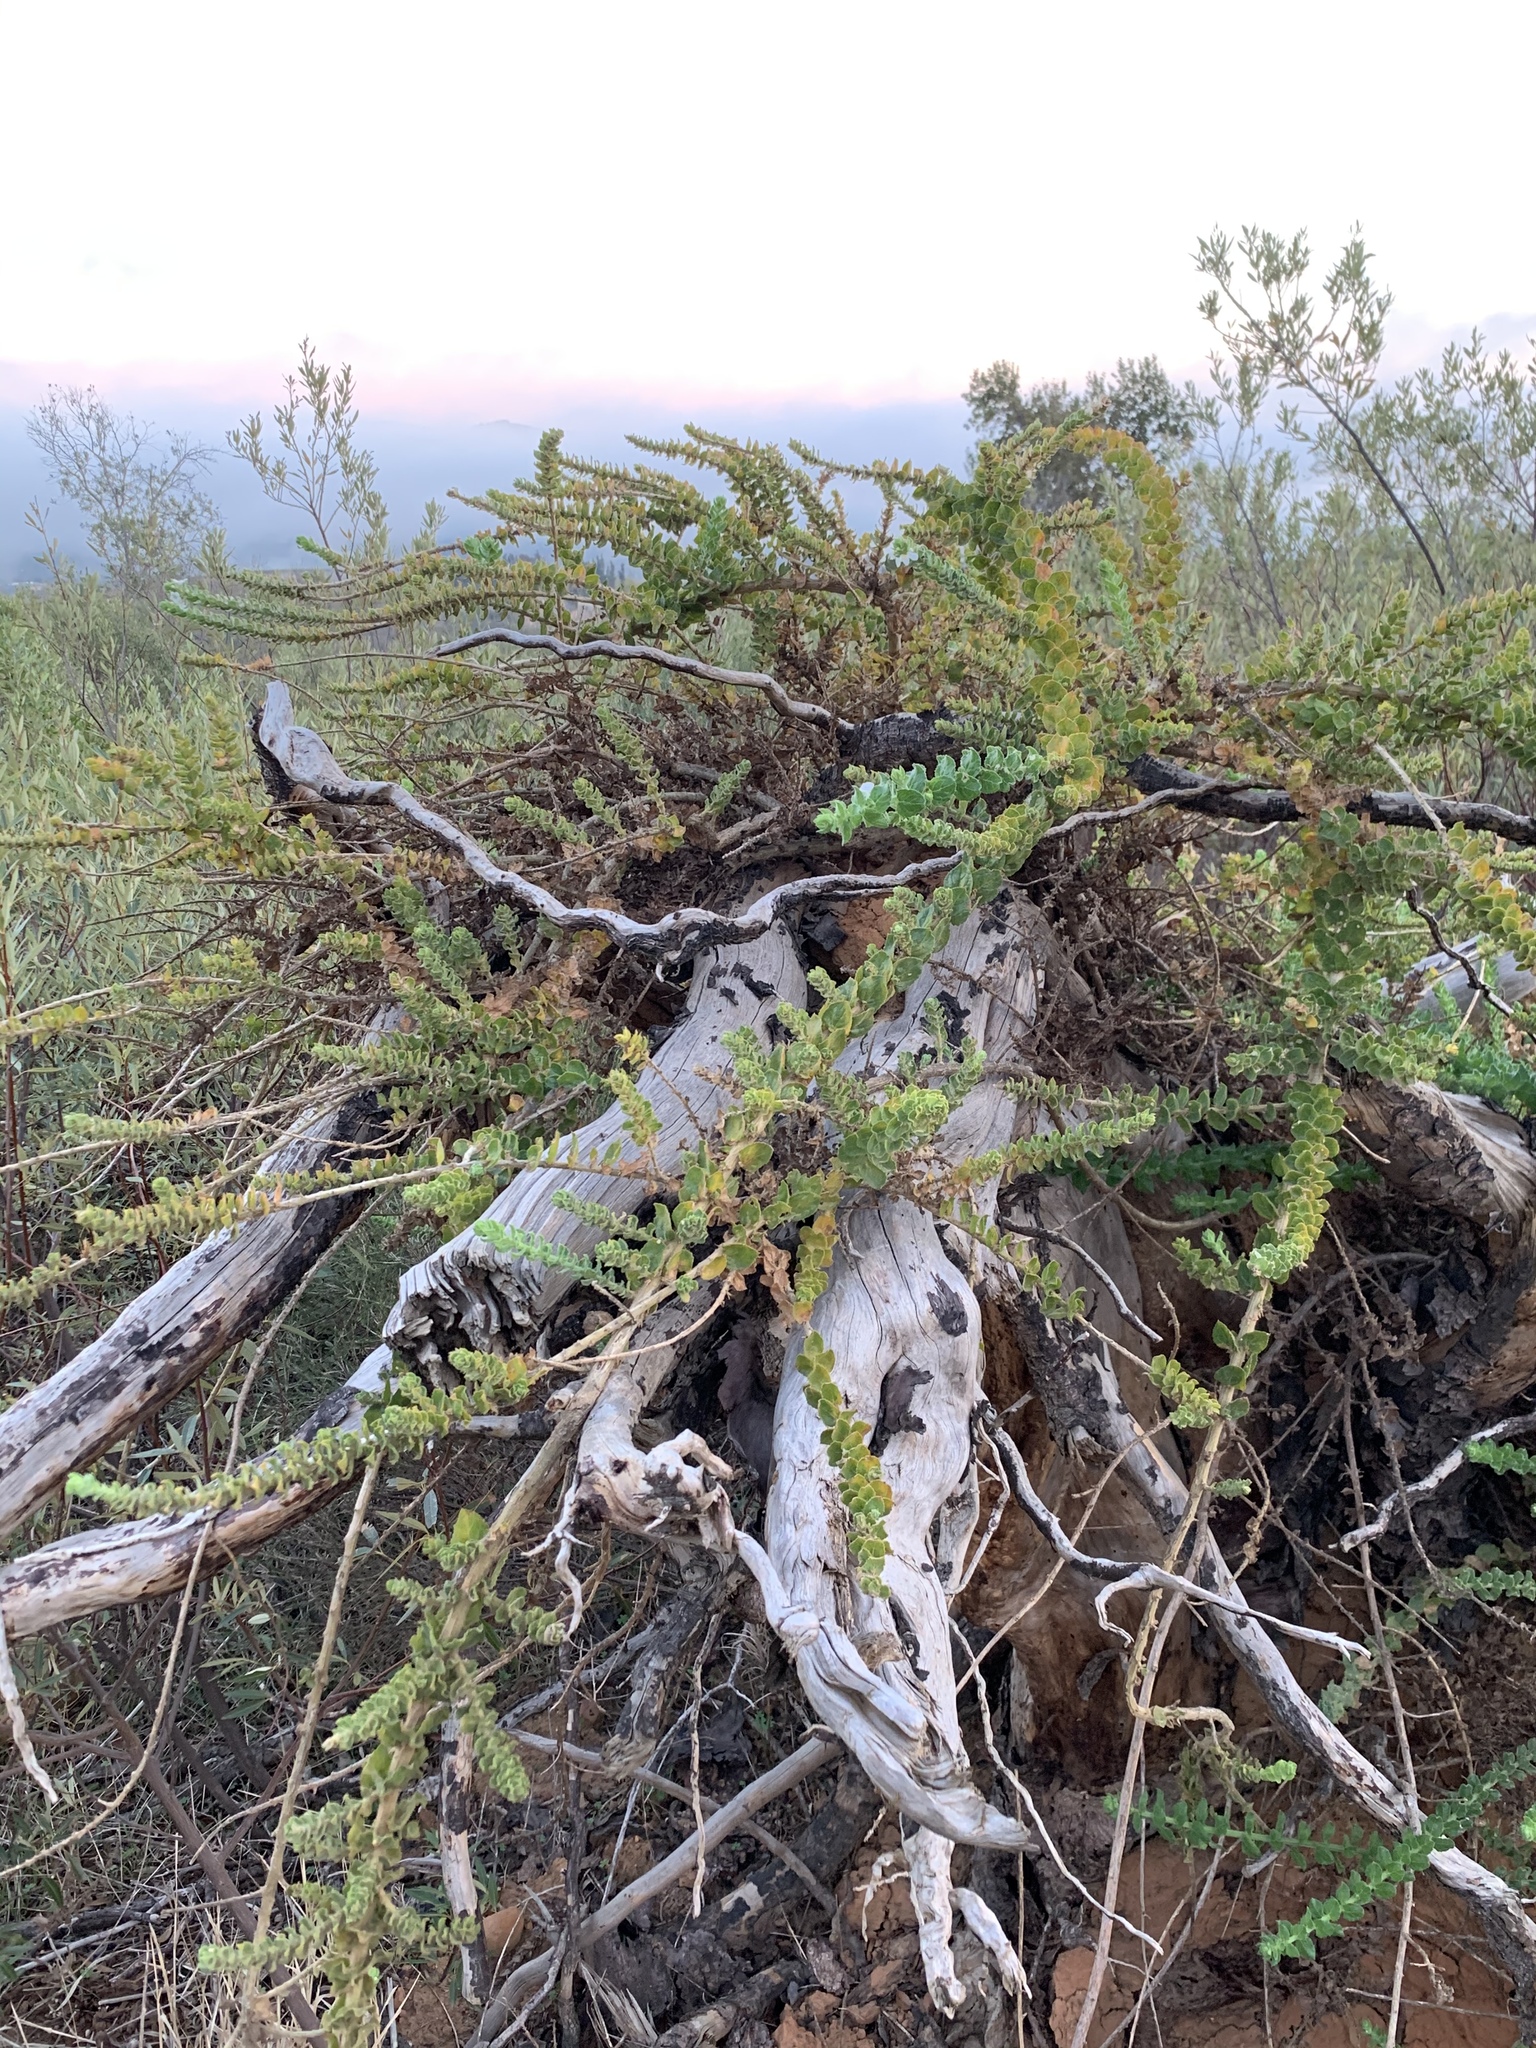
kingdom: Plantae
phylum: Tracheophyta
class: Magnoliopsida
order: Lamiales
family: Scrophulariaceae
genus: Oftia
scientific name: Oftia africana
